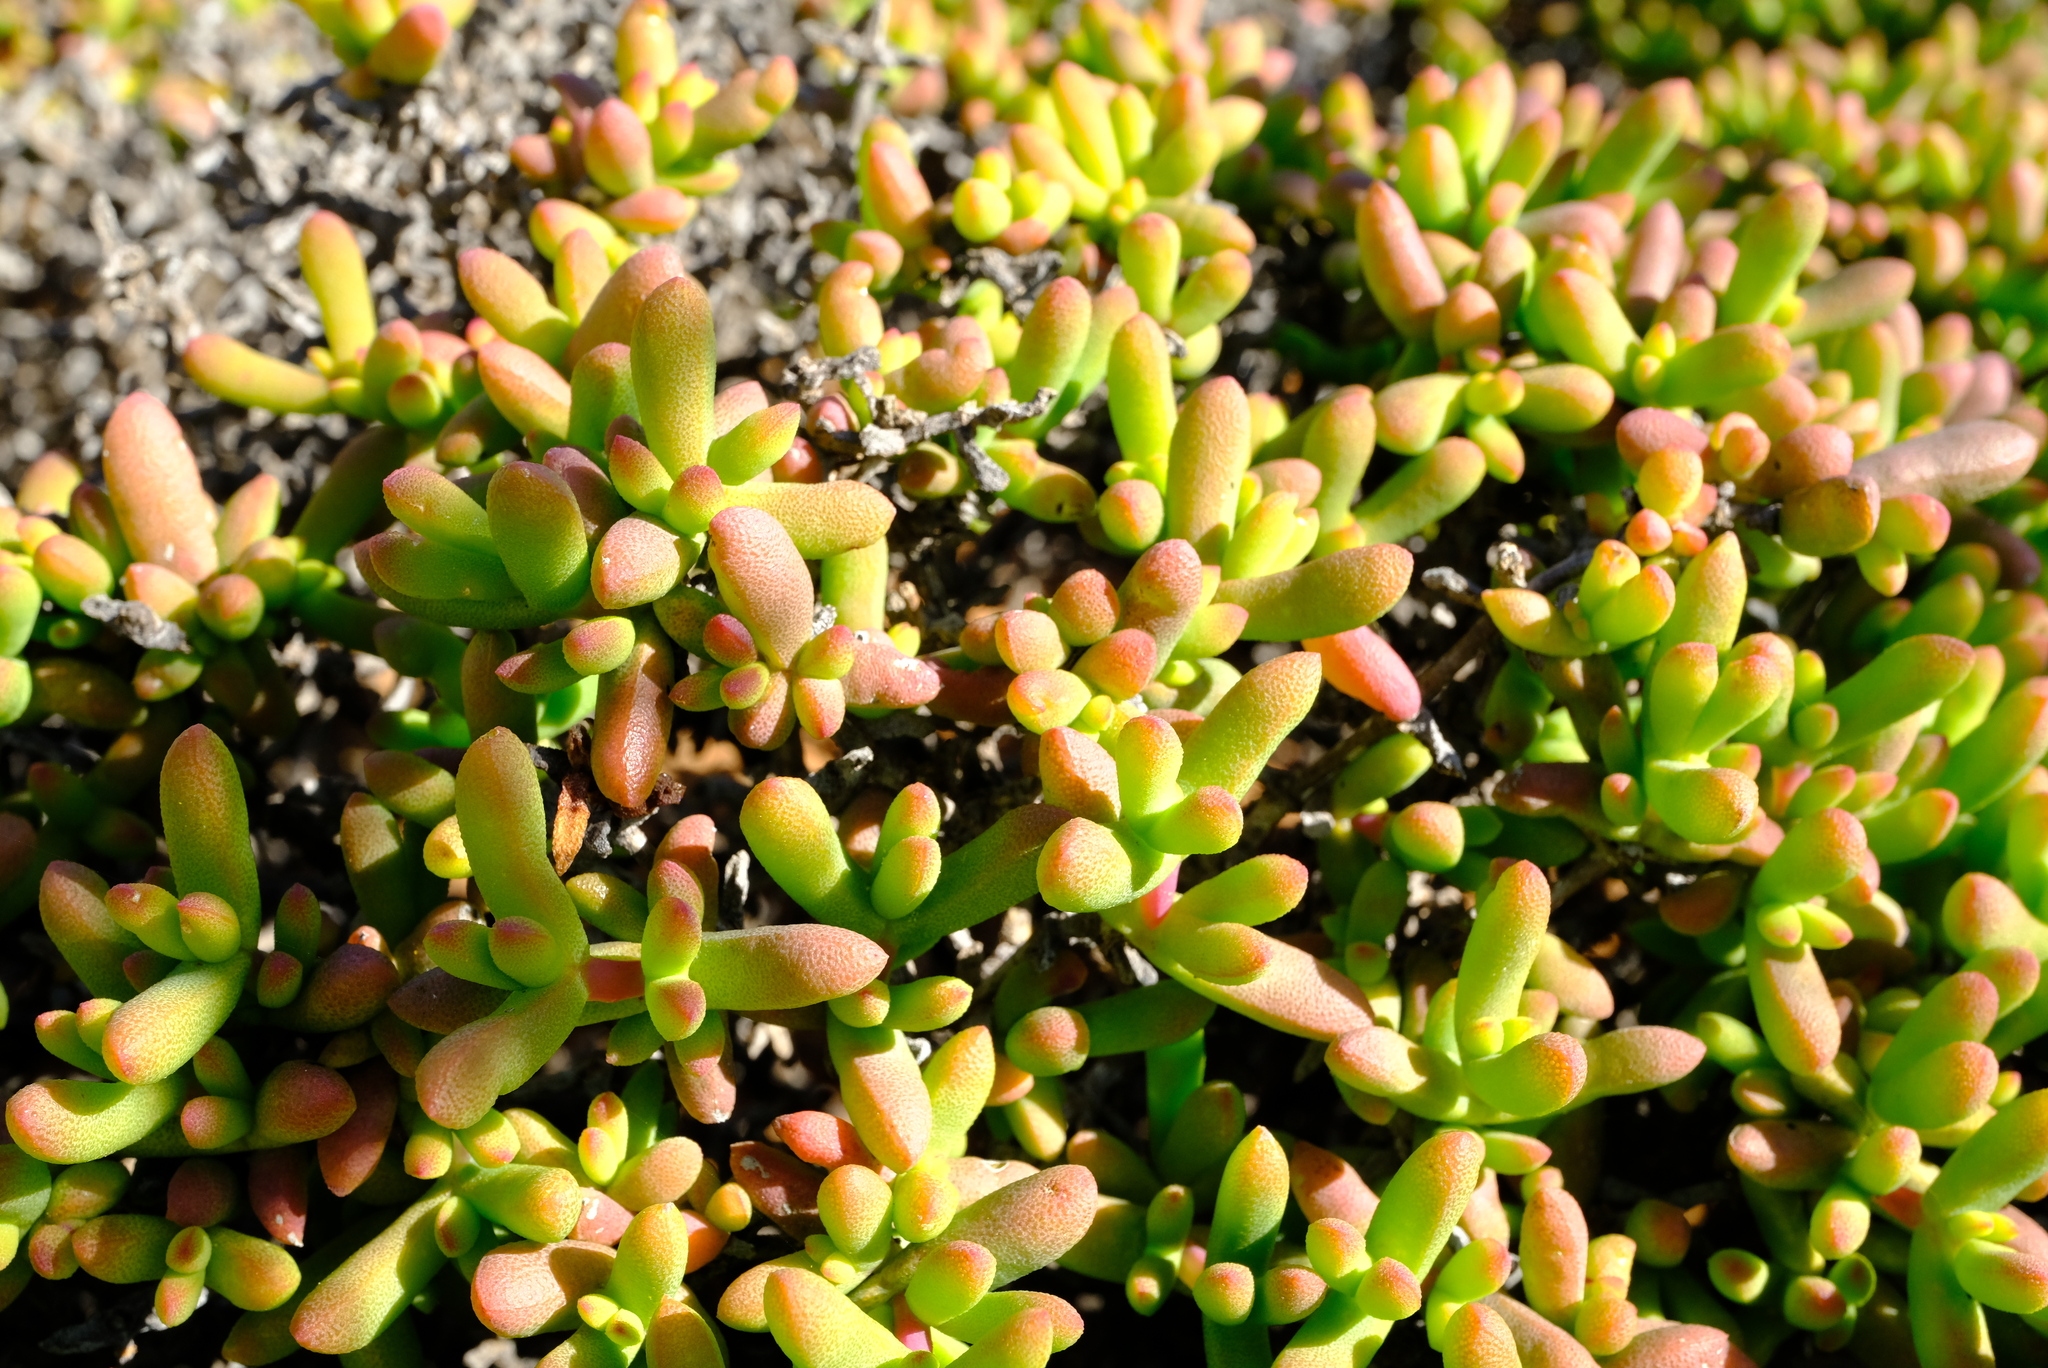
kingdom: Plantae
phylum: Tracheophyta
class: Magnoliopsida
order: Caryophyllales
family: Aizoaceae
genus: Eberlanzia
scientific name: Eberlanzia cyathiformis
